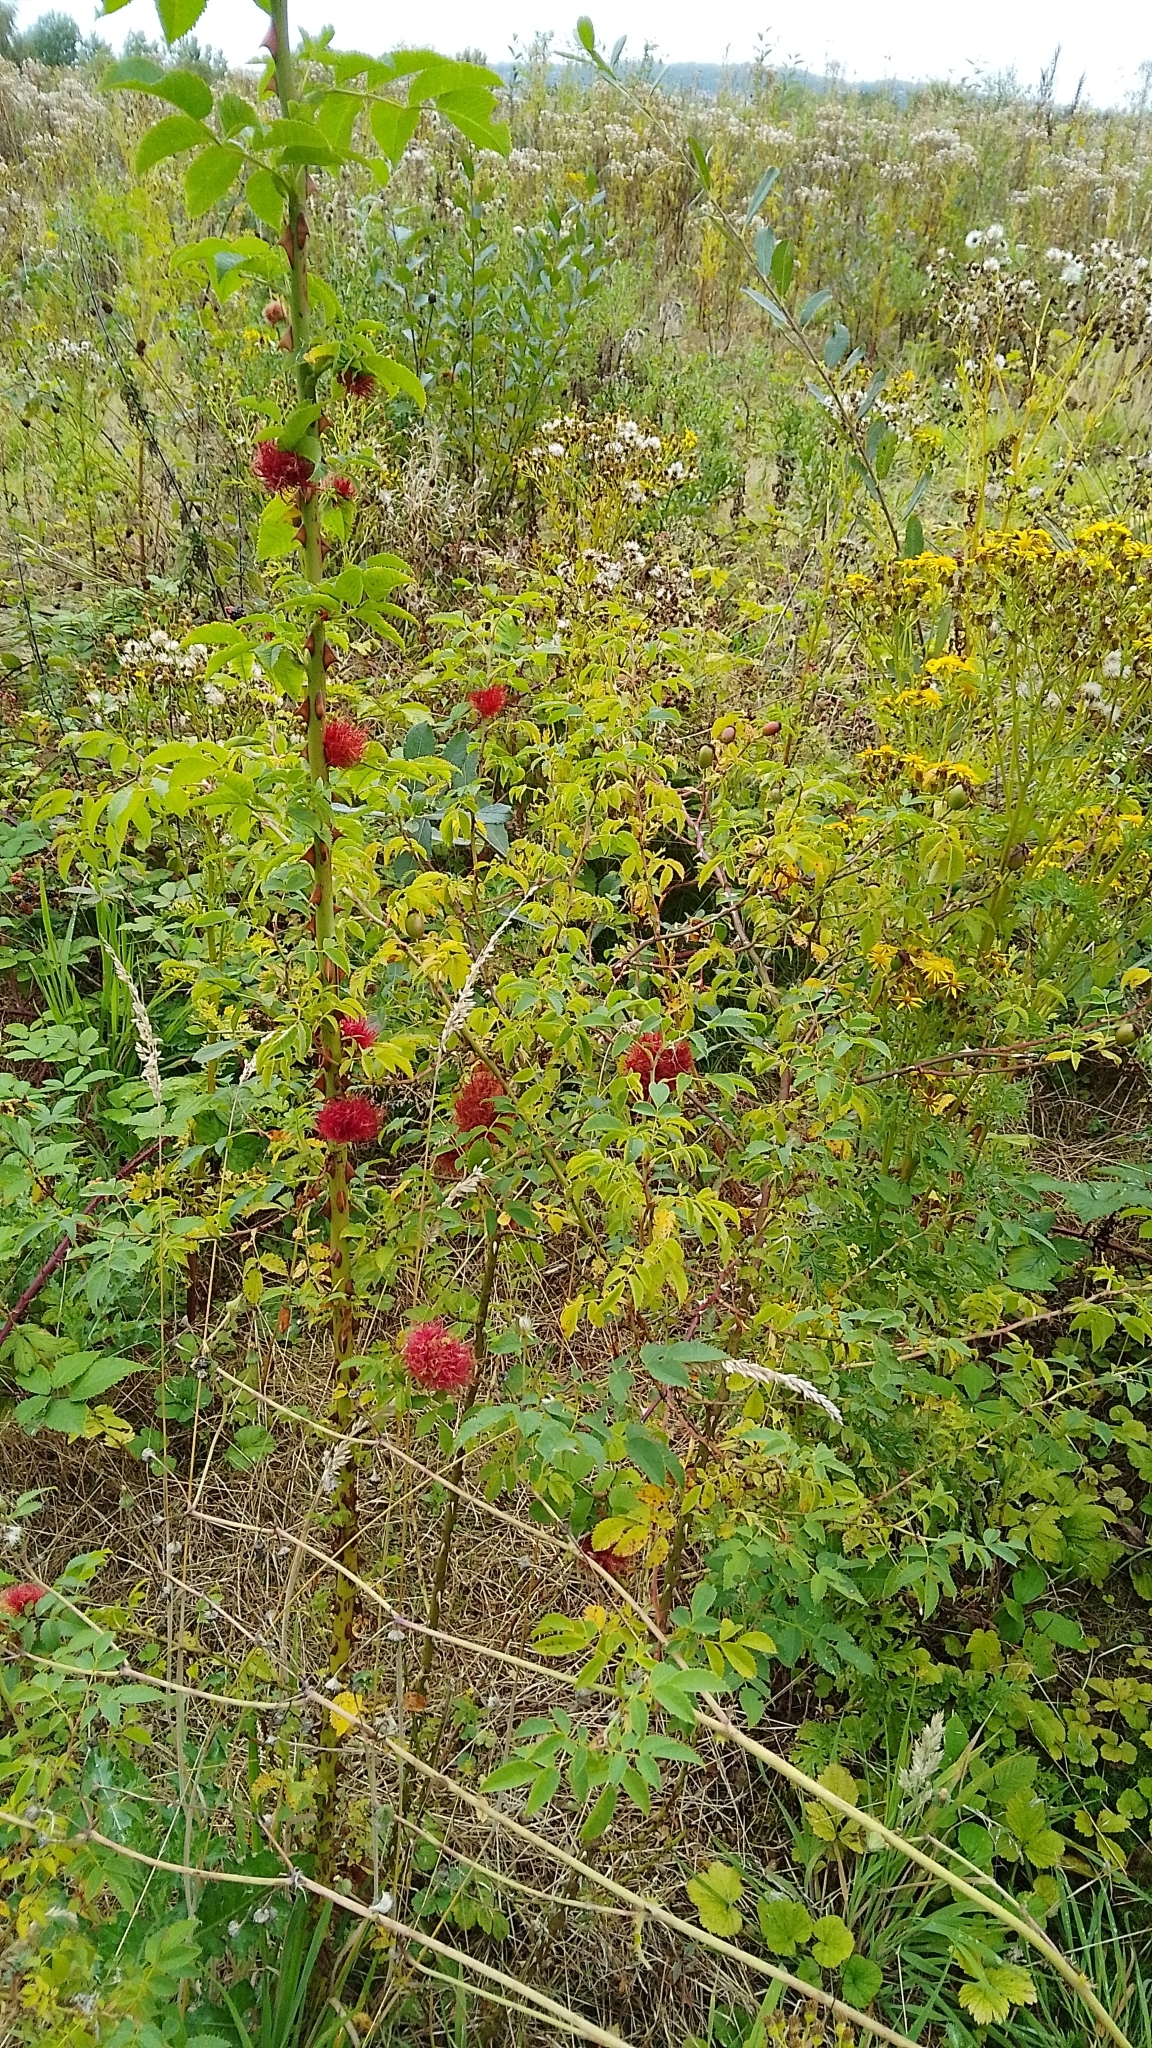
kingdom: Animalia
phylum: Arthropoda
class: Insecta
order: Hymenoptera
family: Cynipidae
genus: Diplolepis
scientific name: Diplolepis rosae
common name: Bedeguar gall
